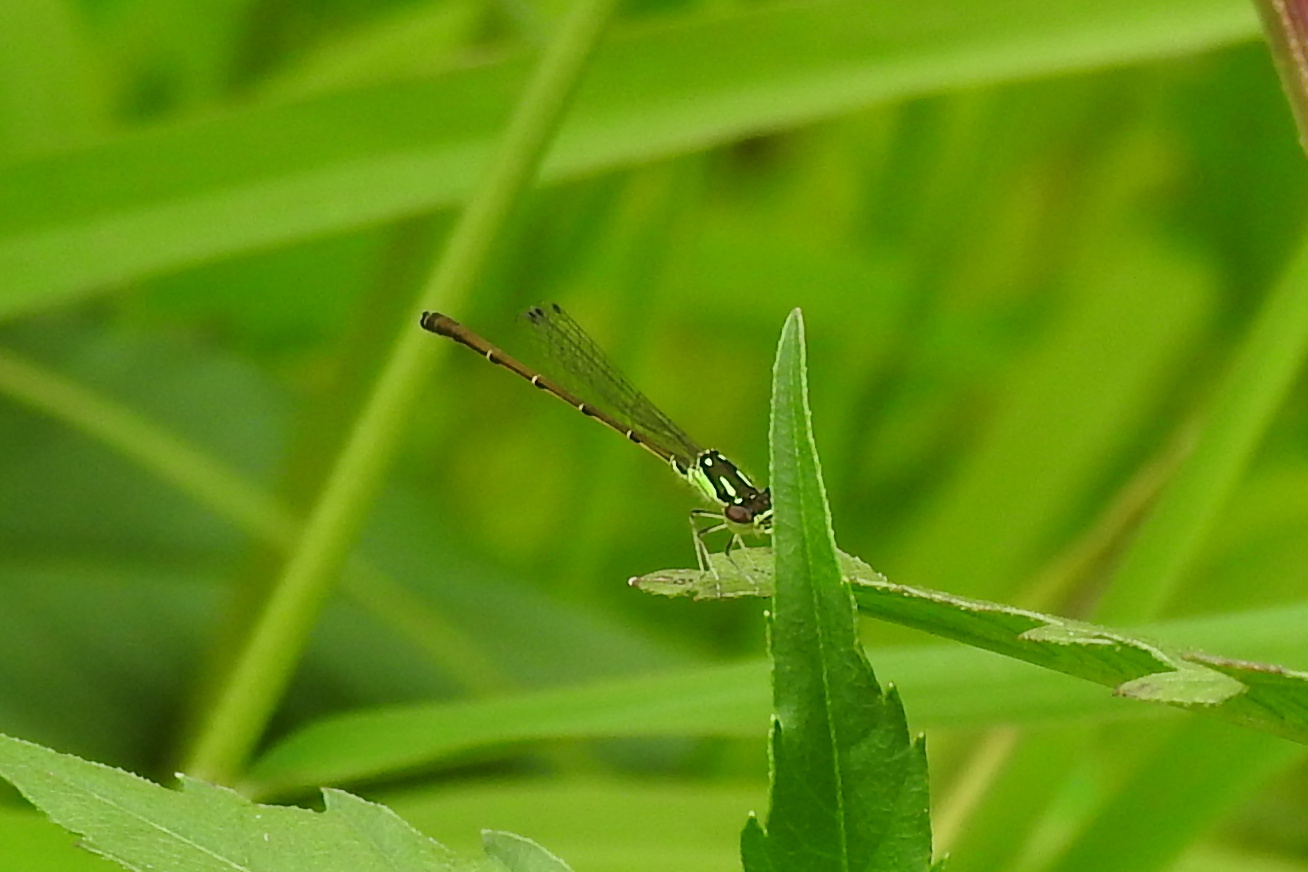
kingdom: Animalia
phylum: Arthropoda
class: Insecta
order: Odonata
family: Coenagrionidae
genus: Ischnura
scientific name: Ischnura posita
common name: Fragile forktail
